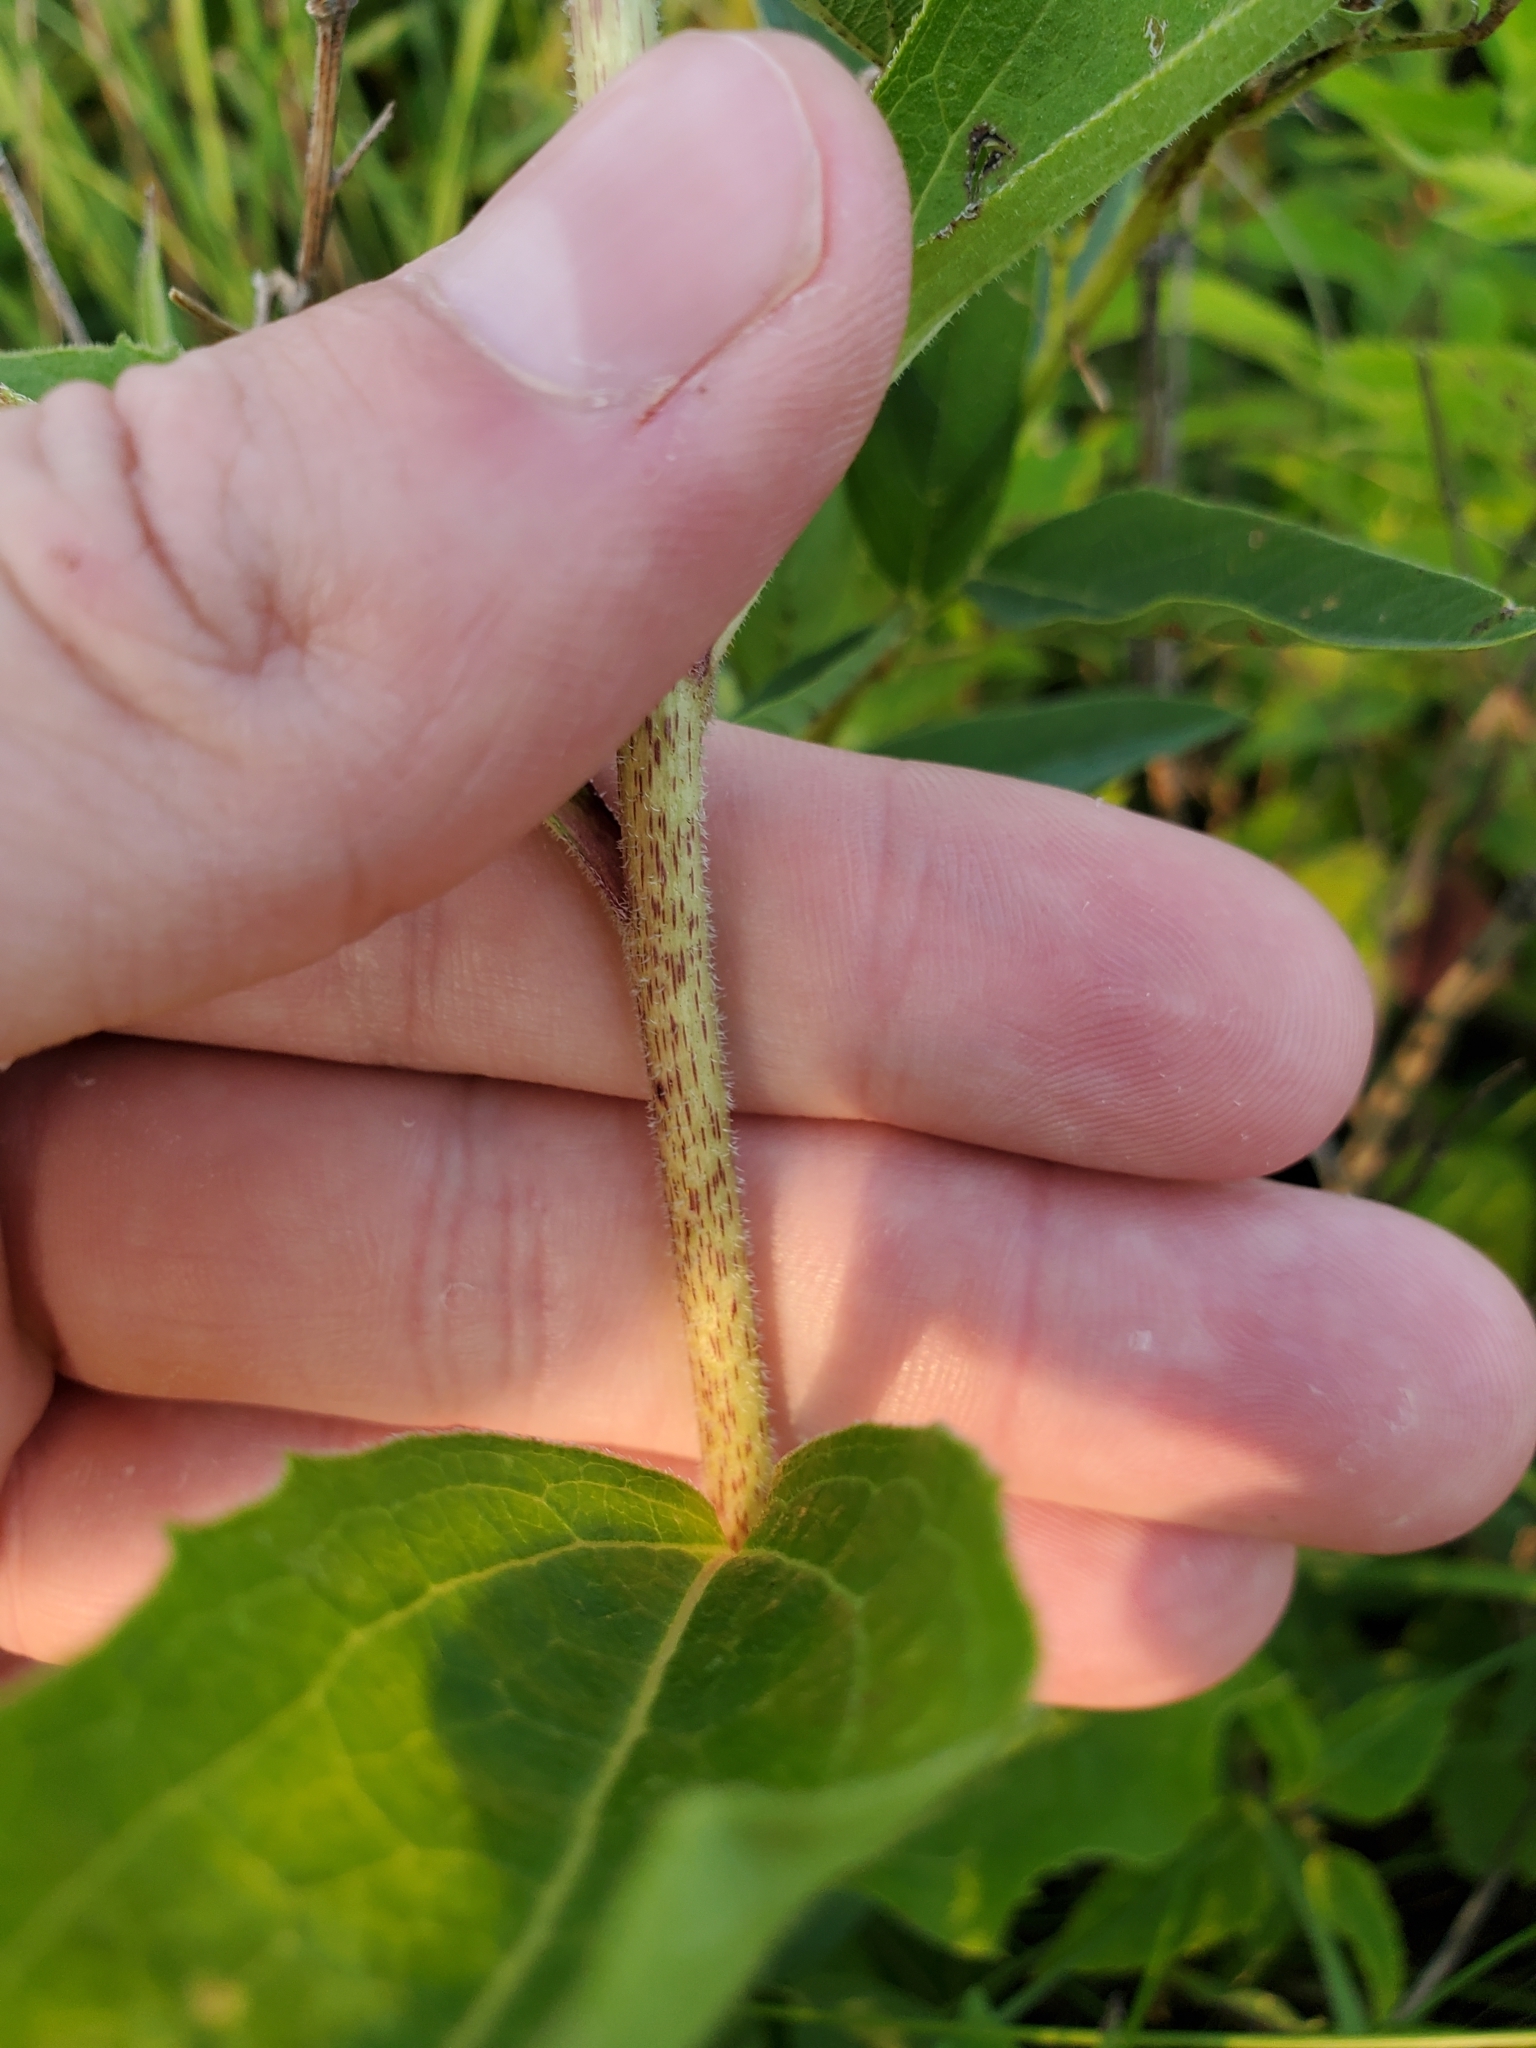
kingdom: Plantae
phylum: Tracheophyta
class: Magnoliopsida
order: Asterales
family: Asteraceae
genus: Echinacea
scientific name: Echinacea purpurea
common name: Broad-leaved purple coneflower
